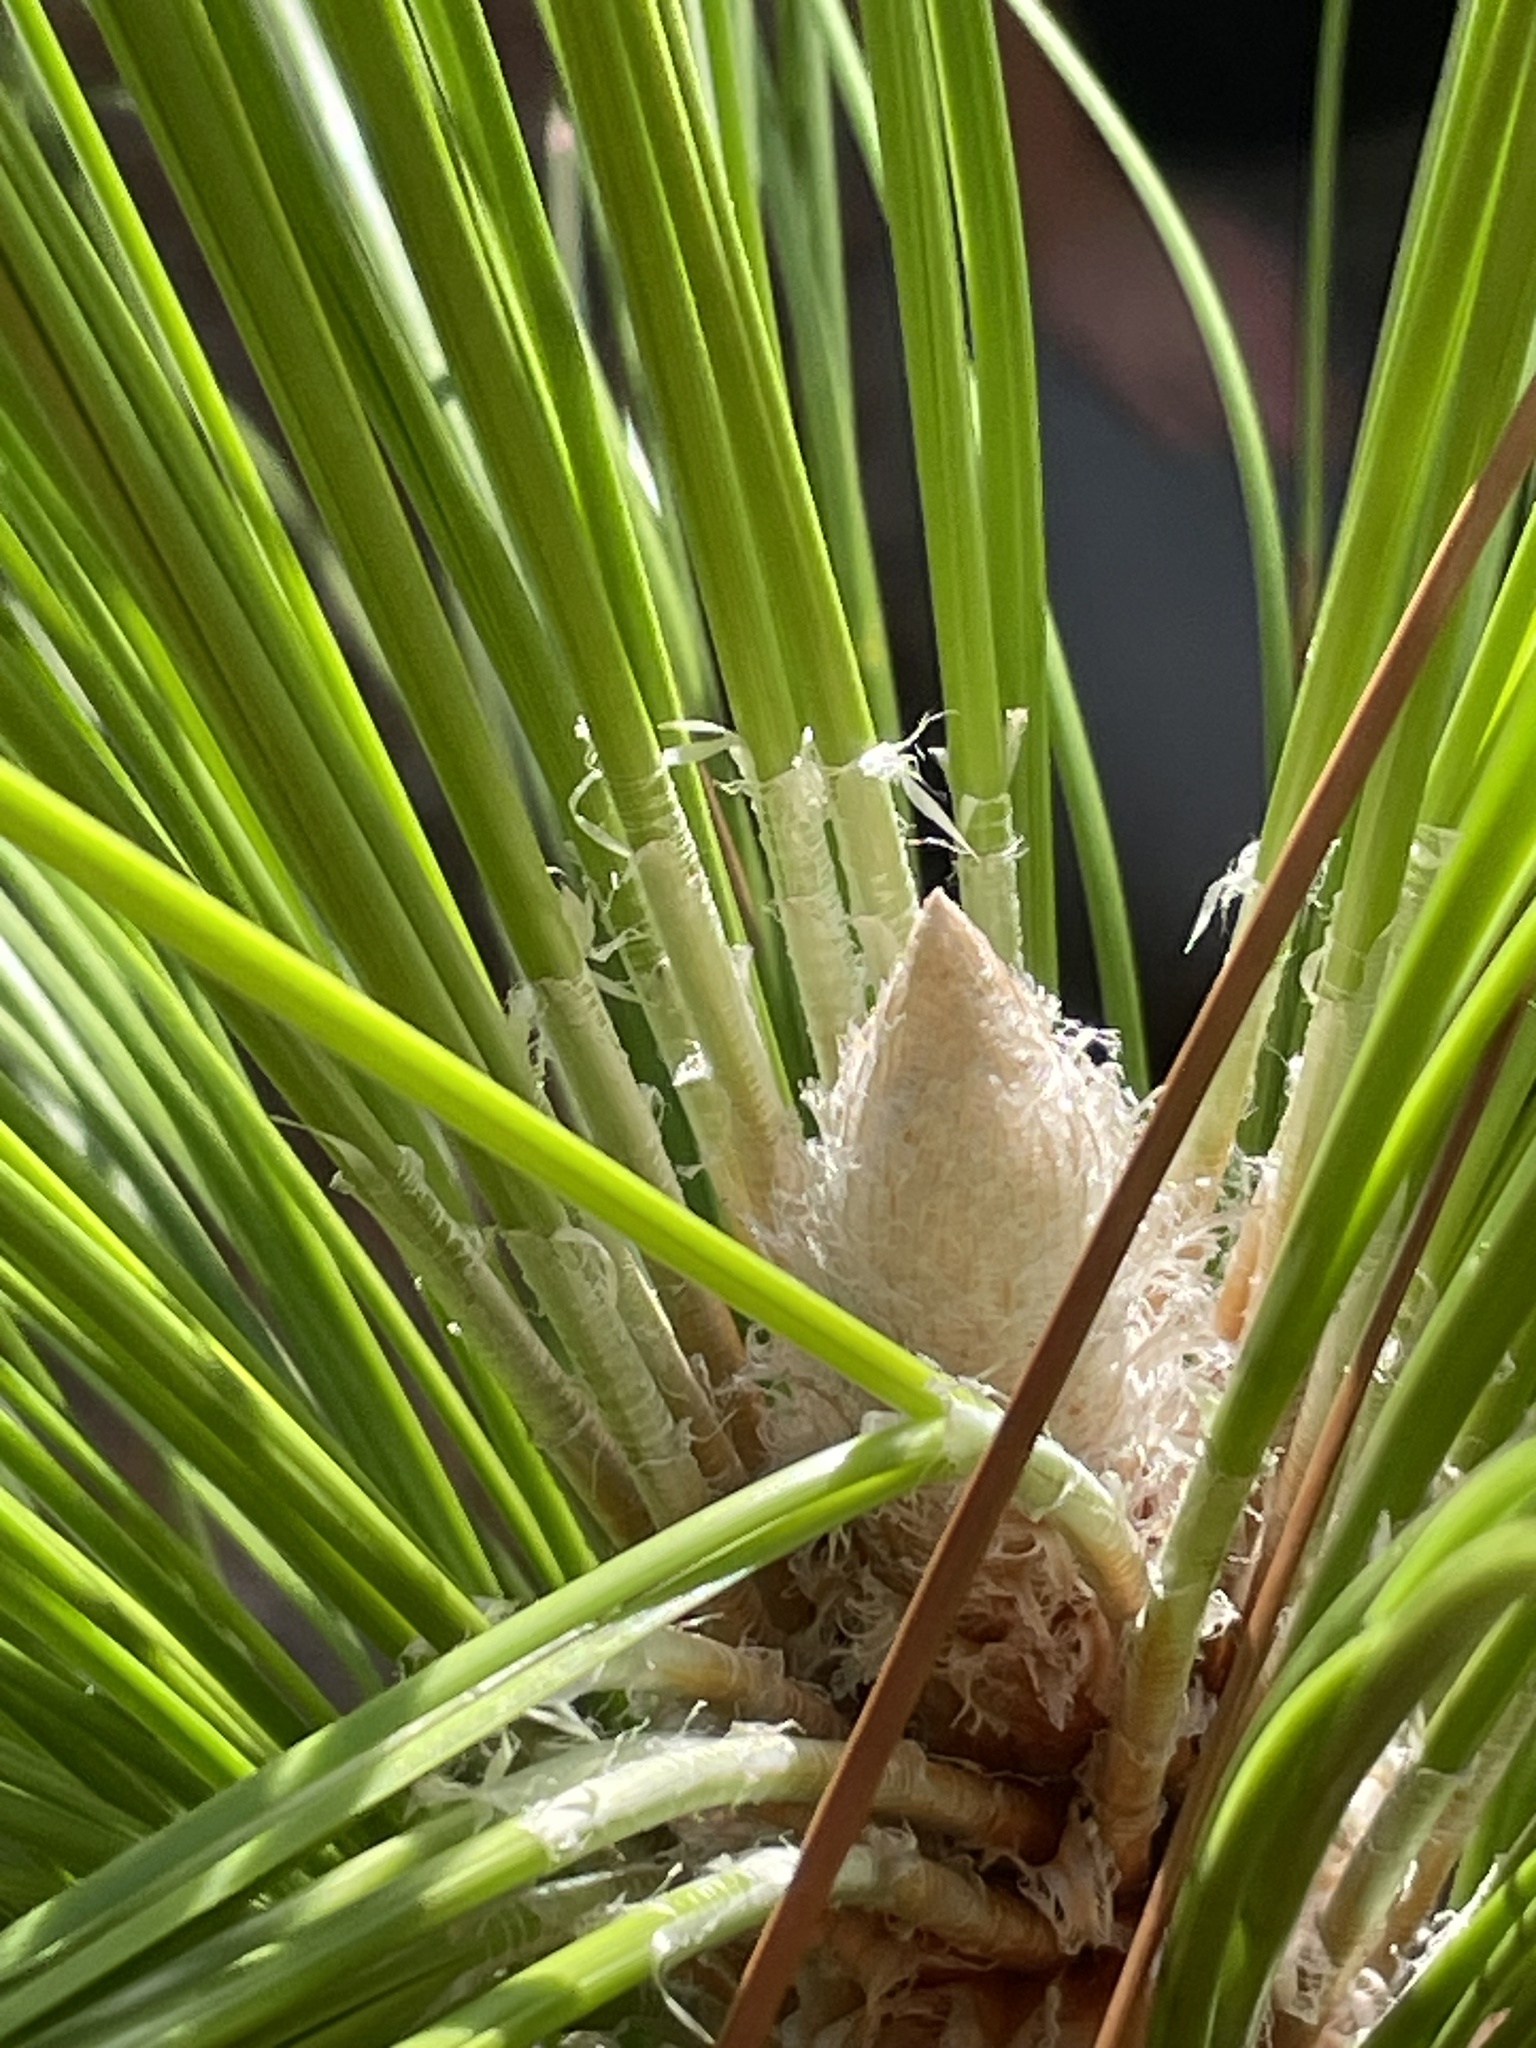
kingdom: Plantae
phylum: Tracheophyta
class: Pinopsida
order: Pinales
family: Pinaceae
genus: Pinus
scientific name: Pinus palustris
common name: Longleaf pine
